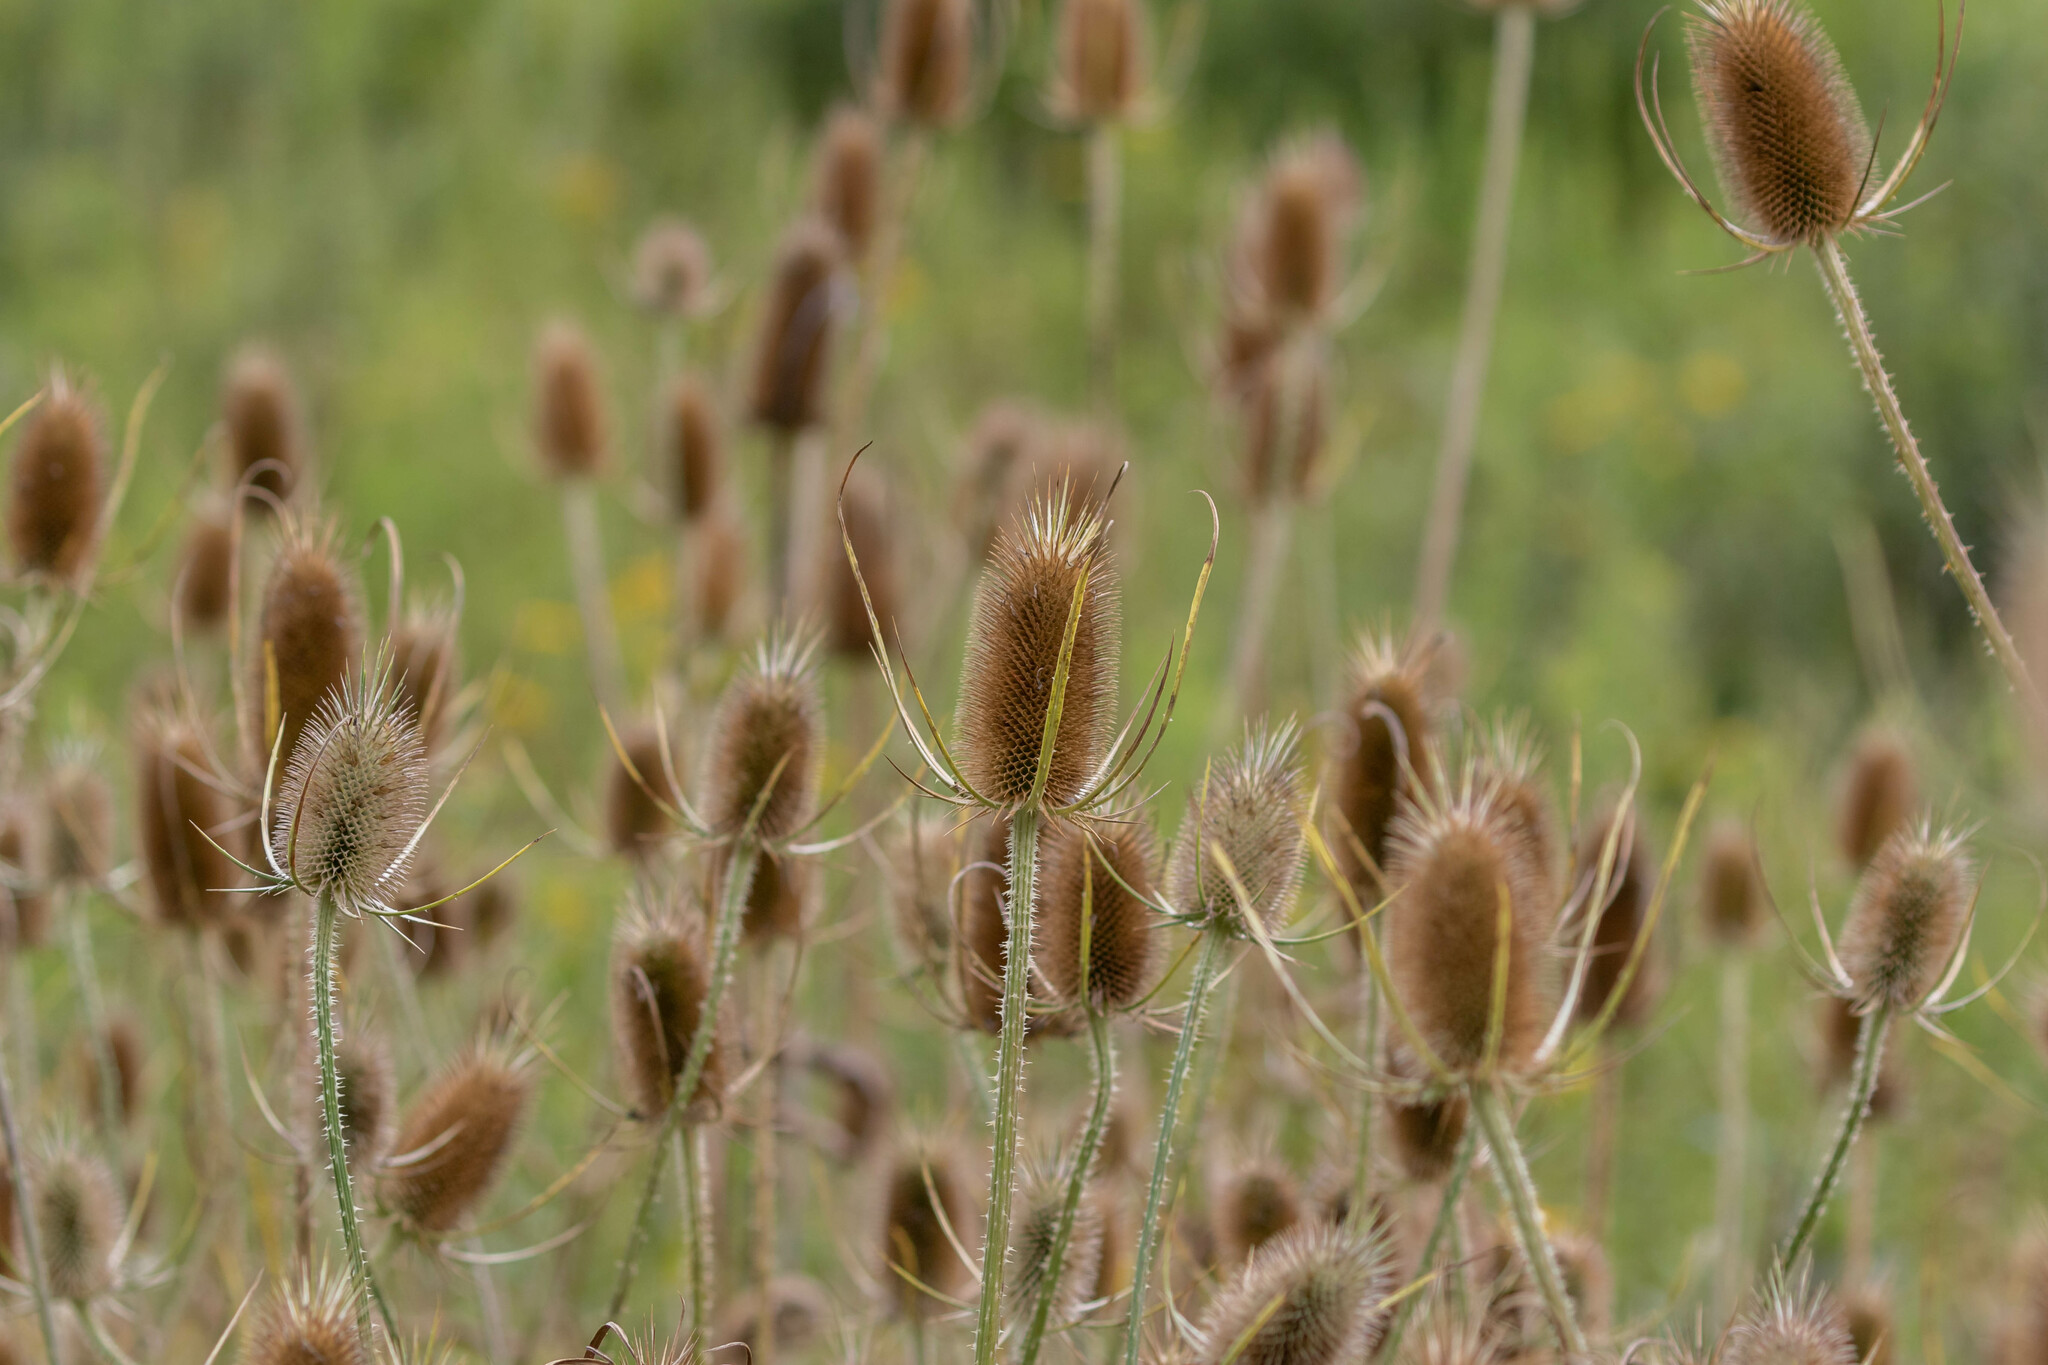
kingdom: Plantae
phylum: Tracheophyta
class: Magnoliopsida
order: Dipsacales
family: Caprifoliaceae
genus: Dipsacus
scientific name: Dipsacus fullonum
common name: Teasel
